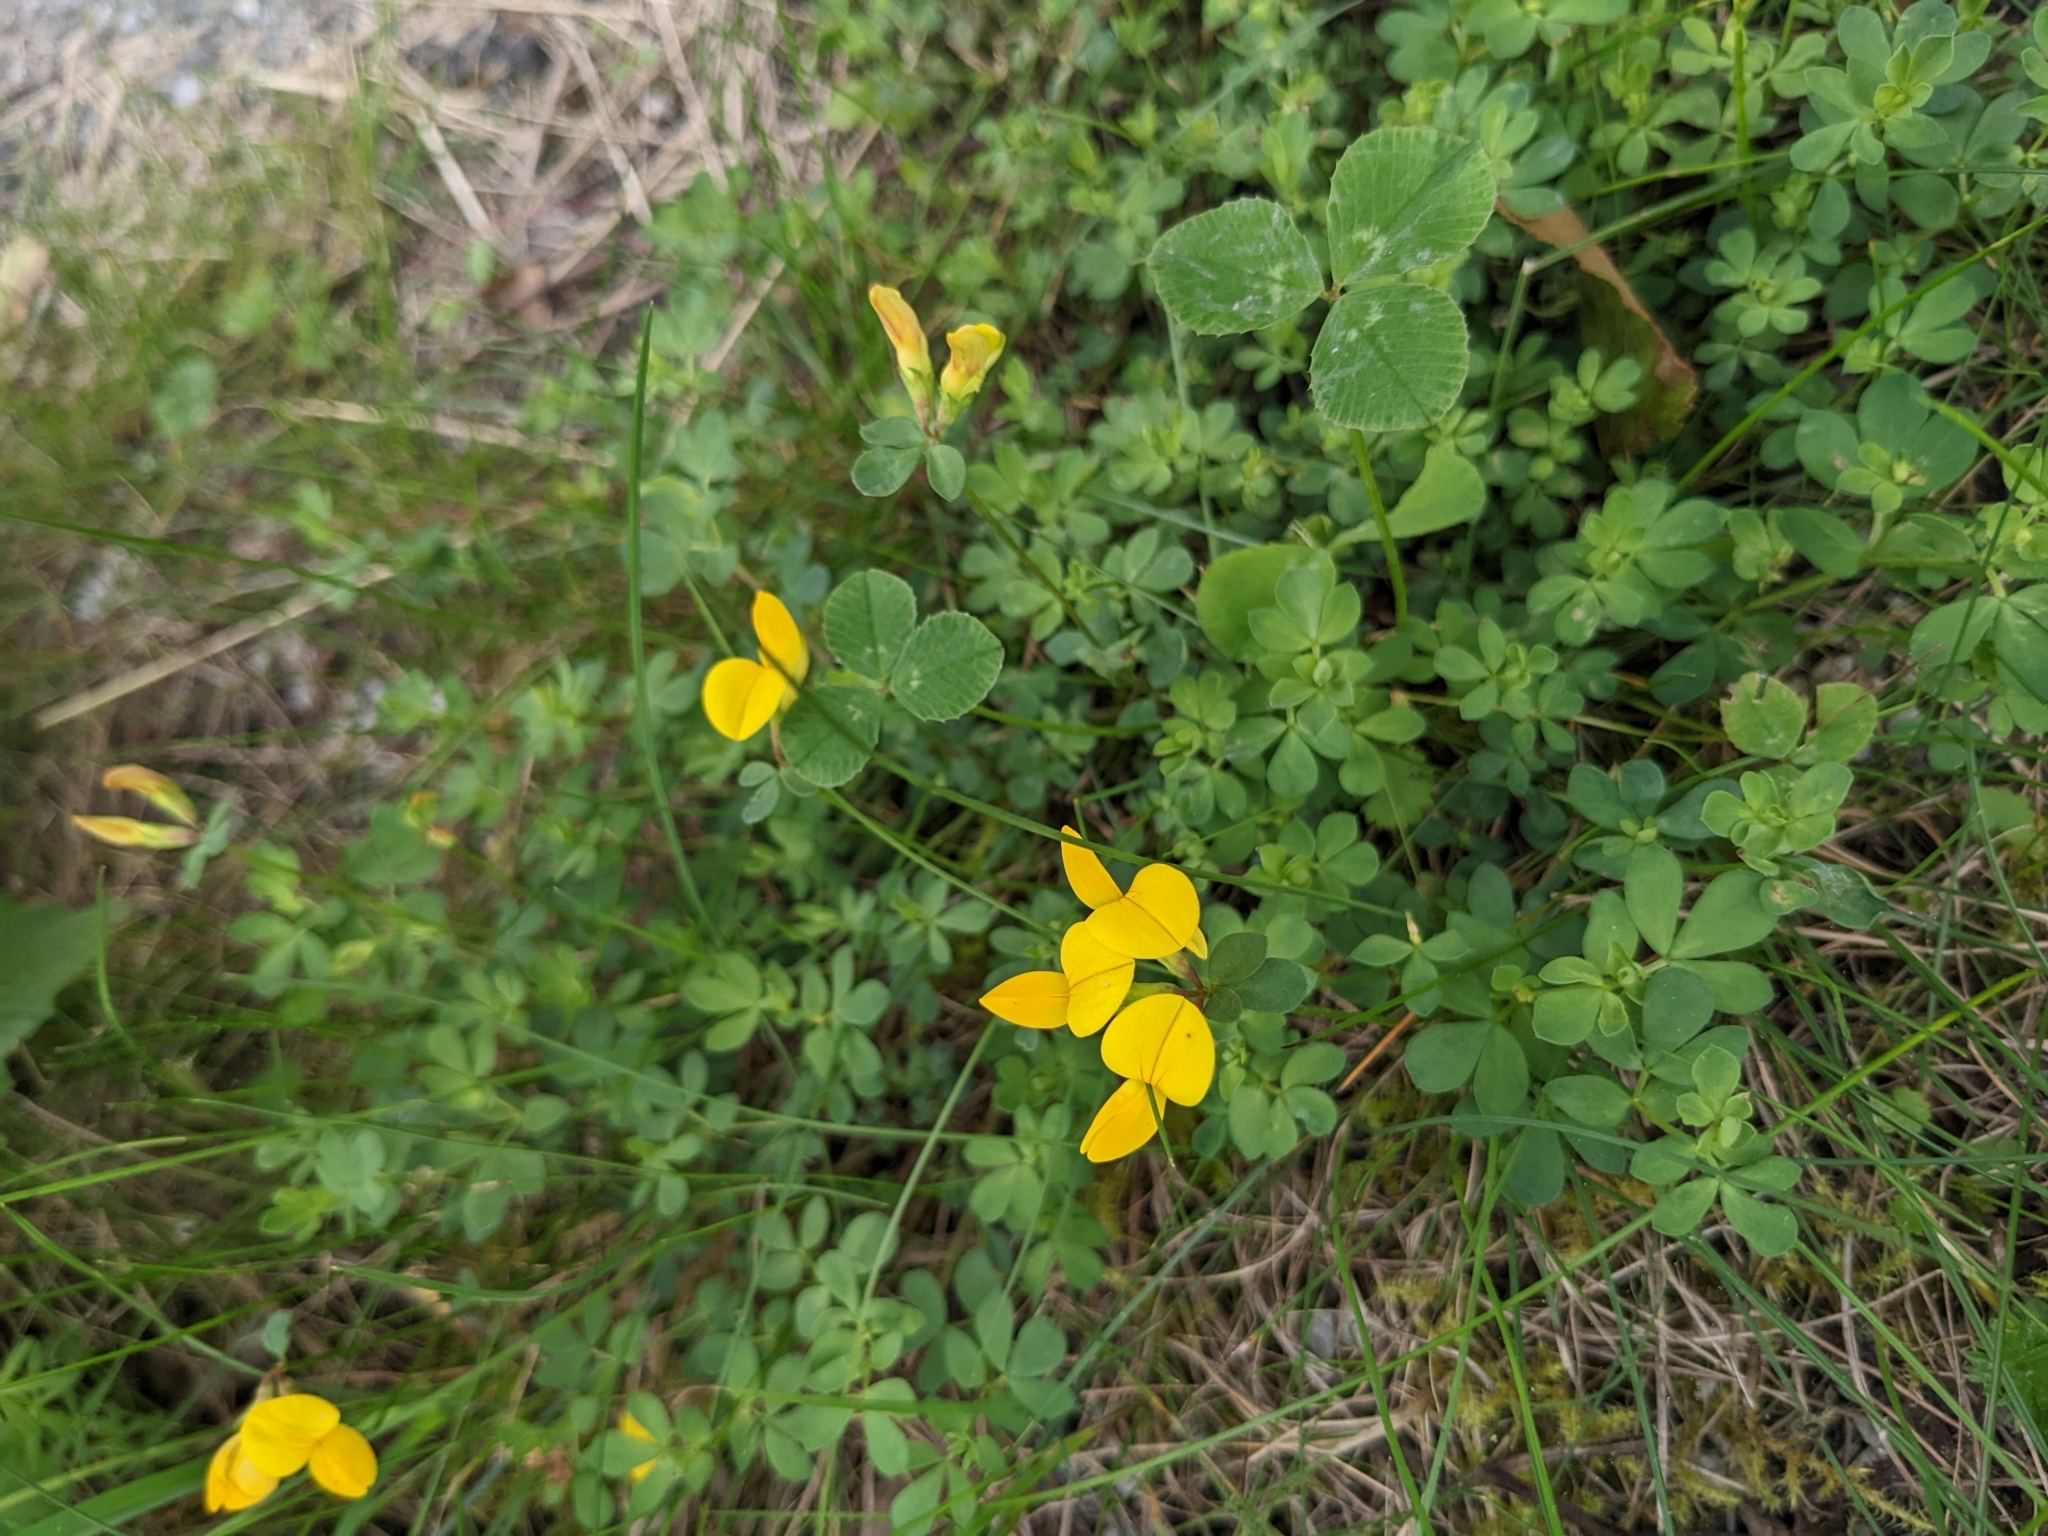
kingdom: Plantae
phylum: Tracheophyta
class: Magnoliopsida
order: Fabales
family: Fabaceae
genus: Lotus
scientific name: Lotus corniculatus
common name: Common bird's-foot-trefoil
